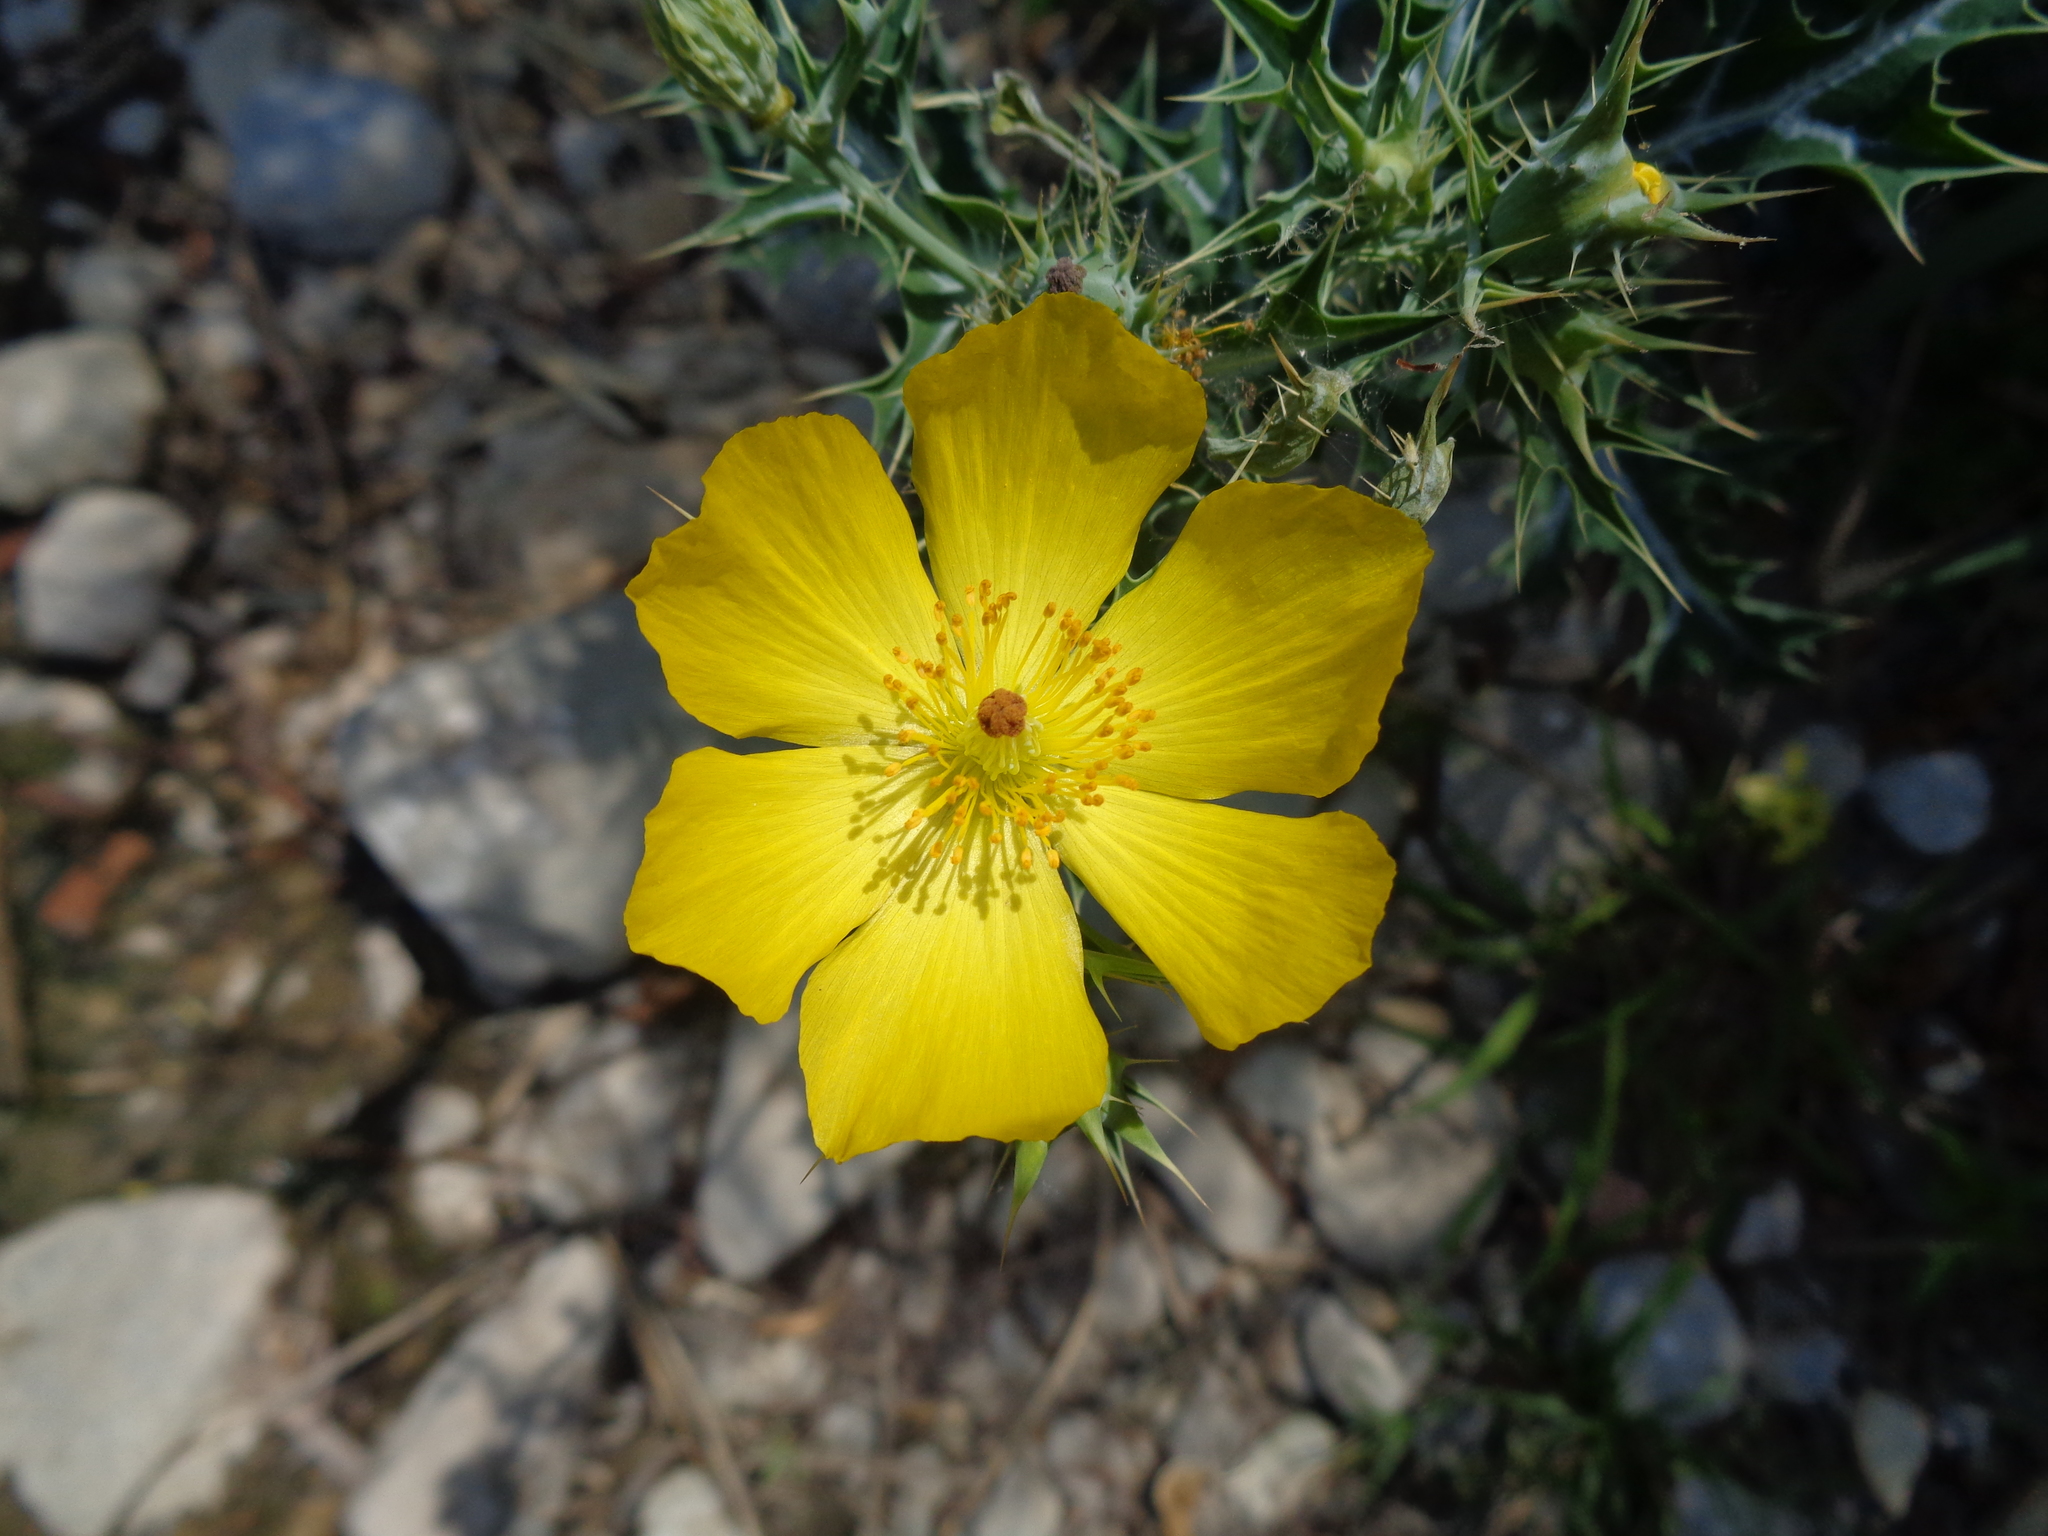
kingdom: Plantae
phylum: Tracheophyta
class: Magnoliopsida
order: Ranunculales
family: Papaveraceae
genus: Argemone
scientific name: Argemone mexicana
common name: Mexican poppy
